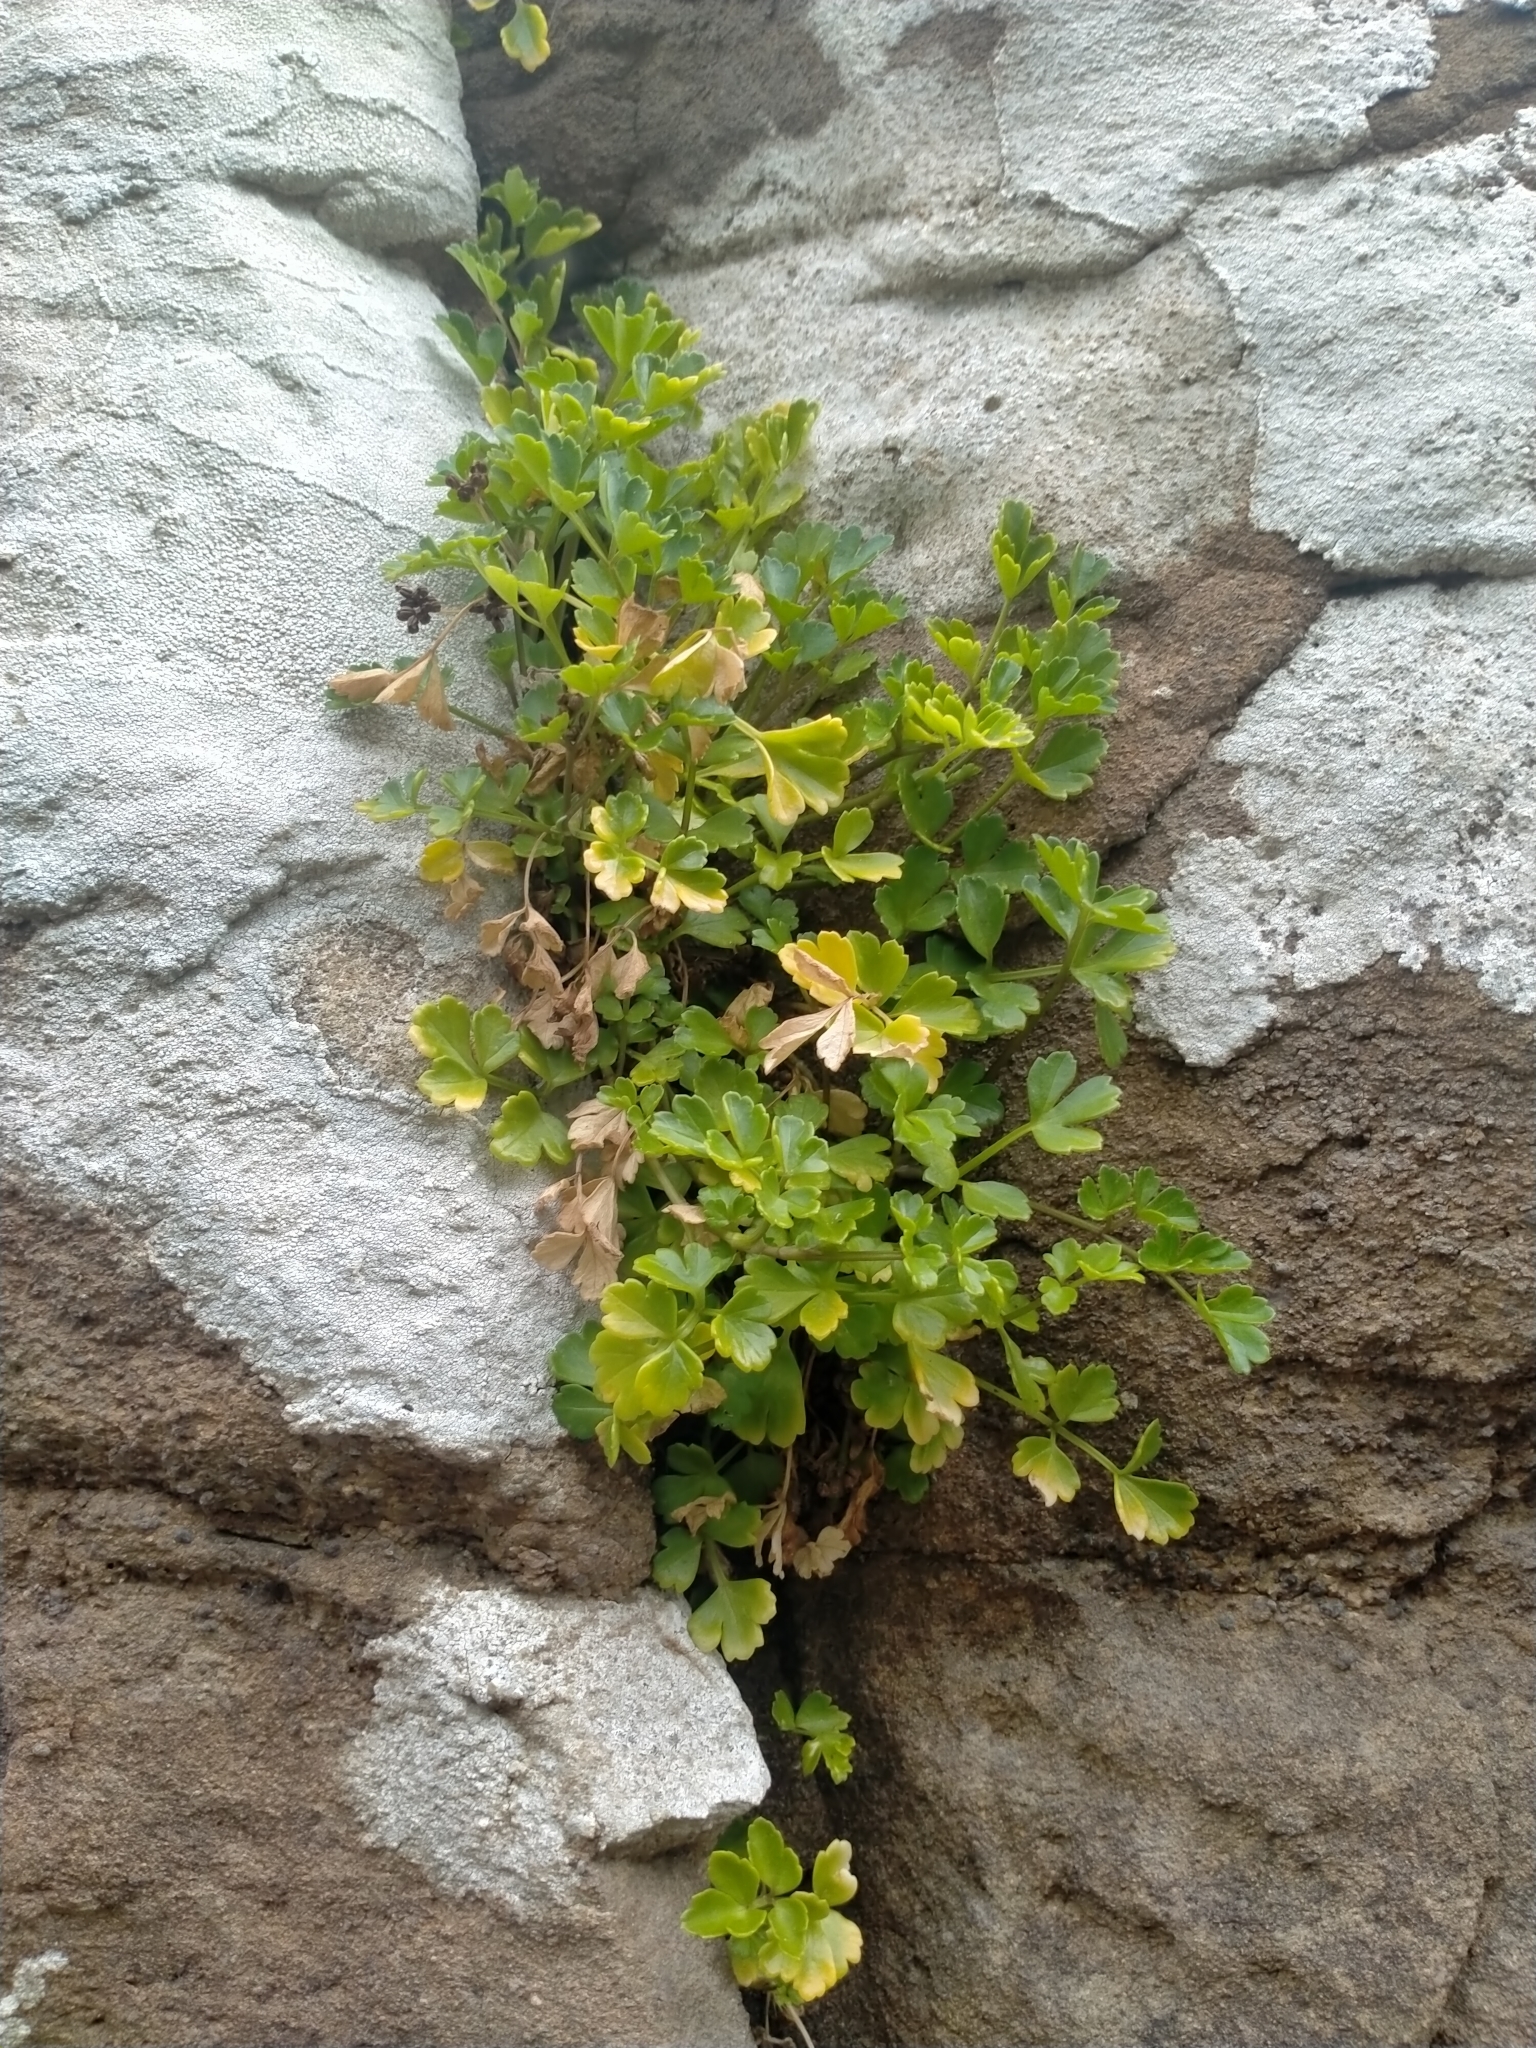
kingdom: Plantae
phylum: Tracheophyta
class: Magnoliopsida
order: Apiales
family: Apiaceae
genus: Apium
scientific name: Apium prostratum
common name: Prostrate marshwort
